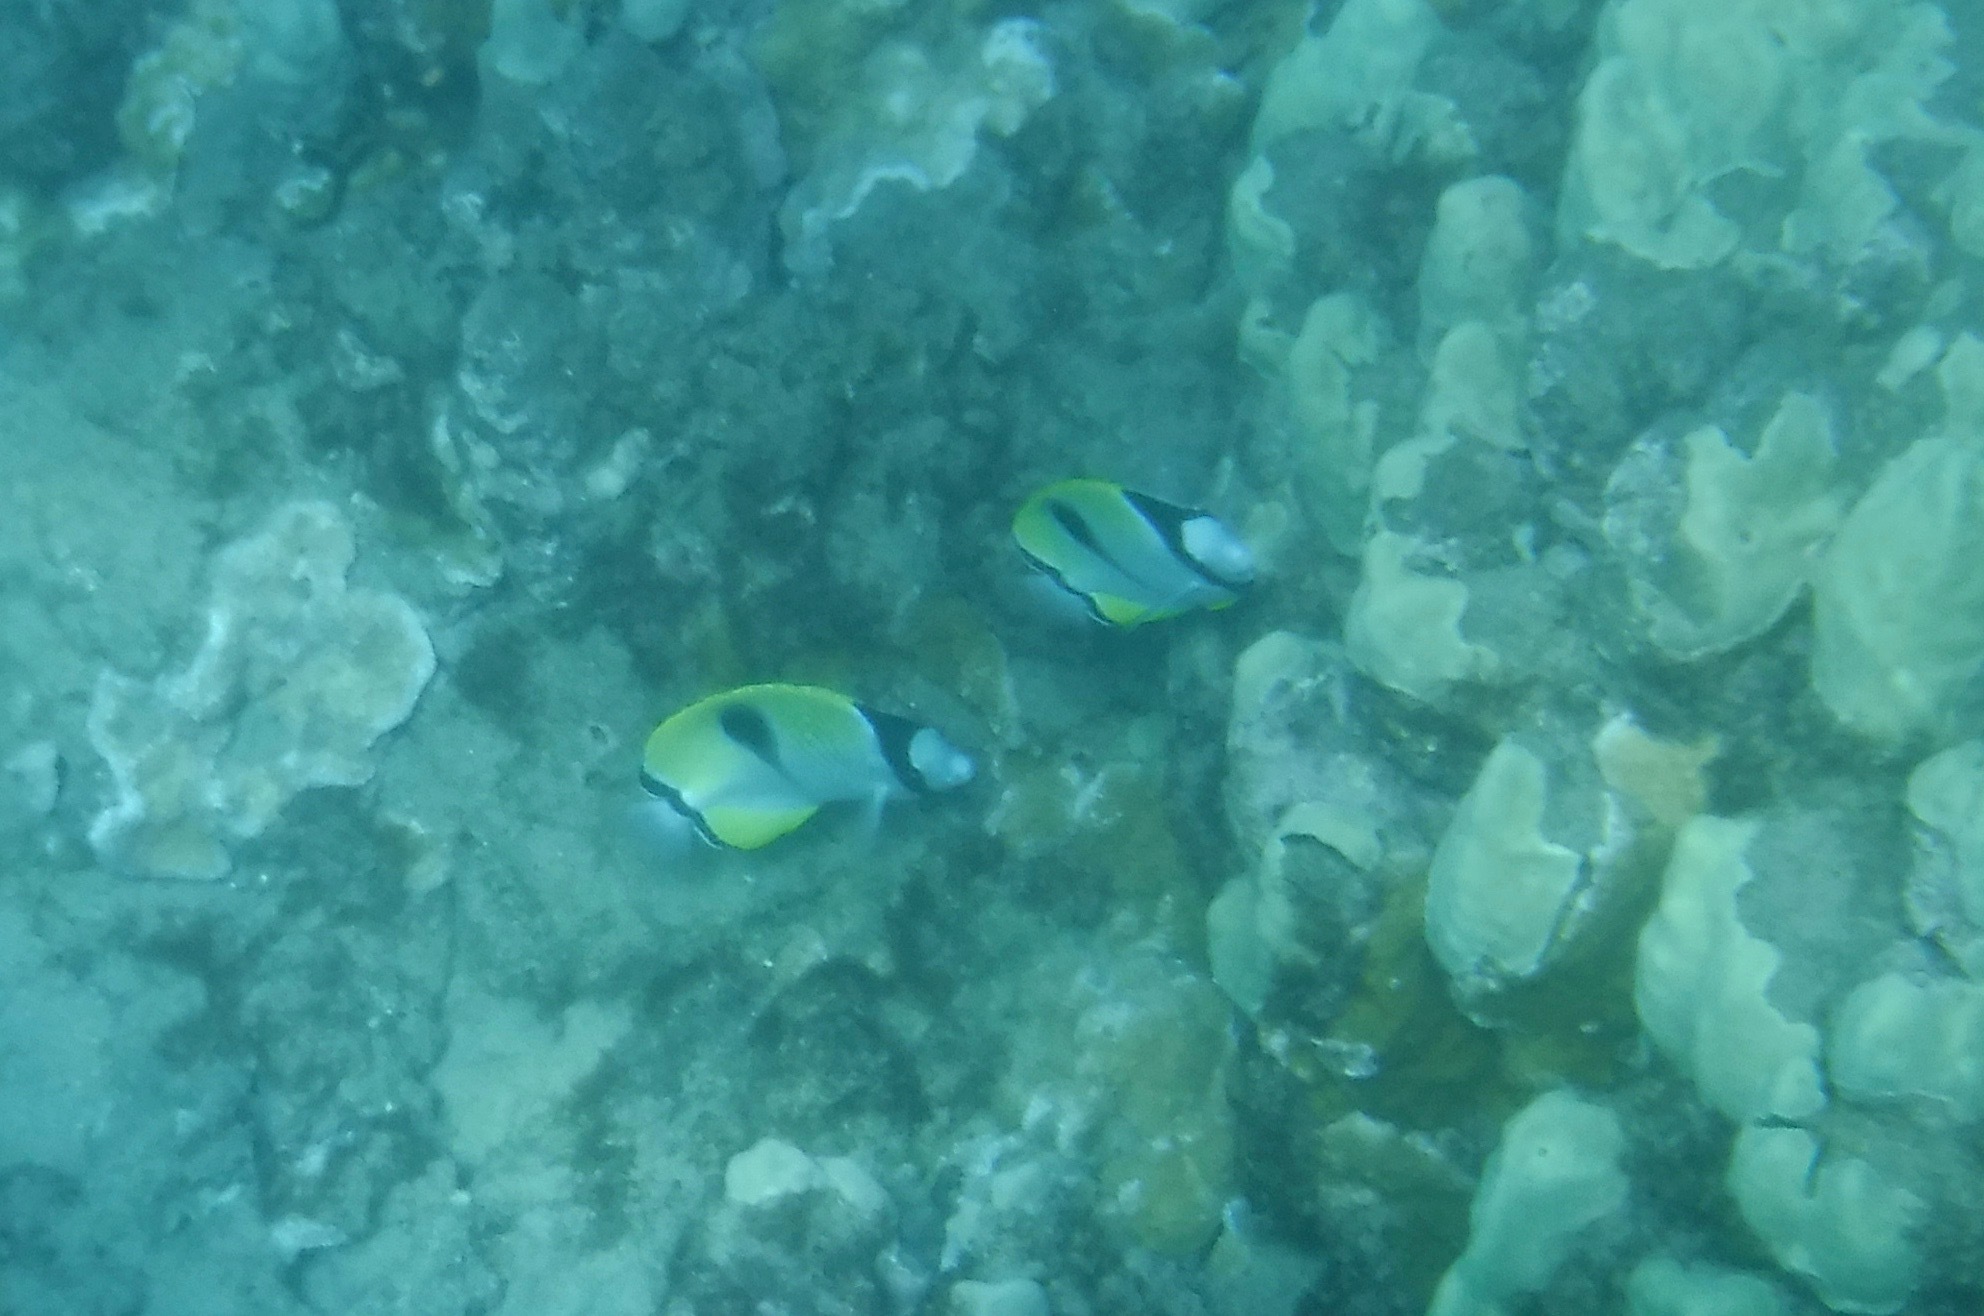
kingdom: Animalia
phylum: Chordata
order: Perciformes
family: Chaetodontidae
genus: Chaetodon
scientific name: Chaetodon unimaculatus
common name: Teardrop butterflyfish
